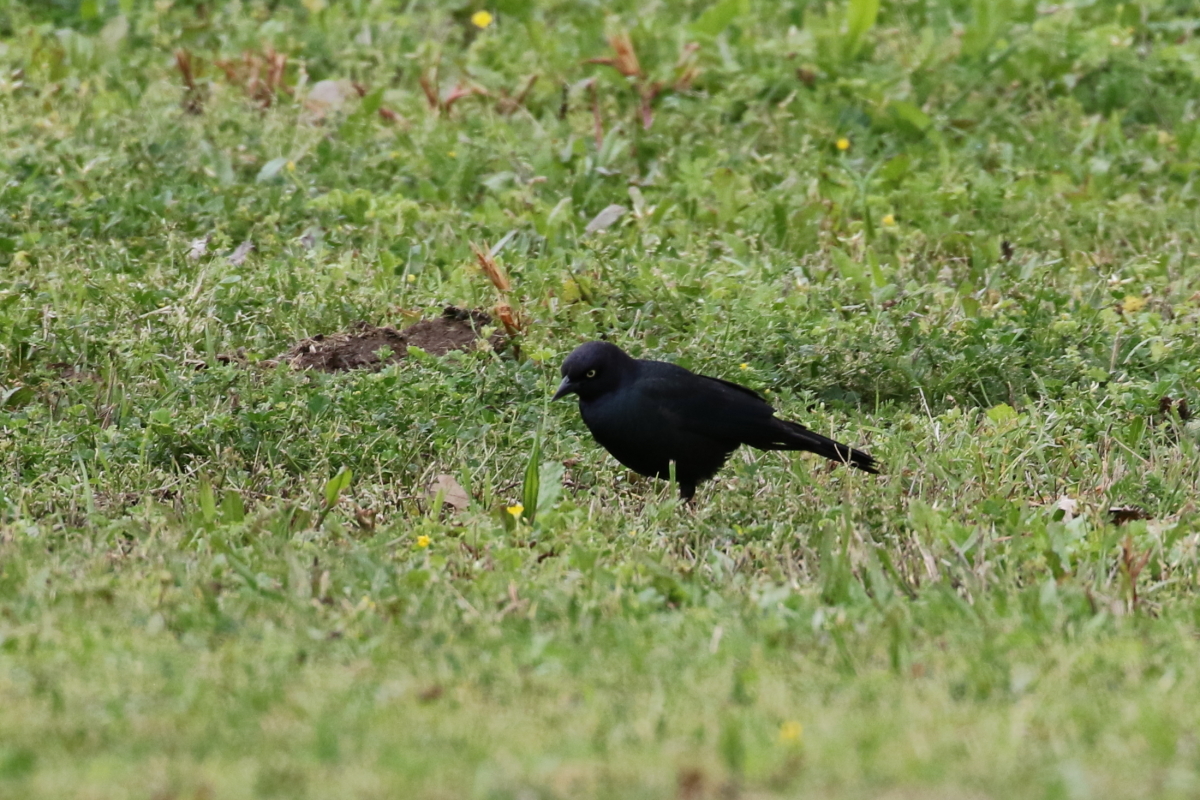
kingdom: Animalia
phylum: Chordata
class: Aves
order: Passeriformes
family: Icteridae
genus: Euphagus
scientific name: Euphagus cyanocephalus
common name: Brewer's blackbird
